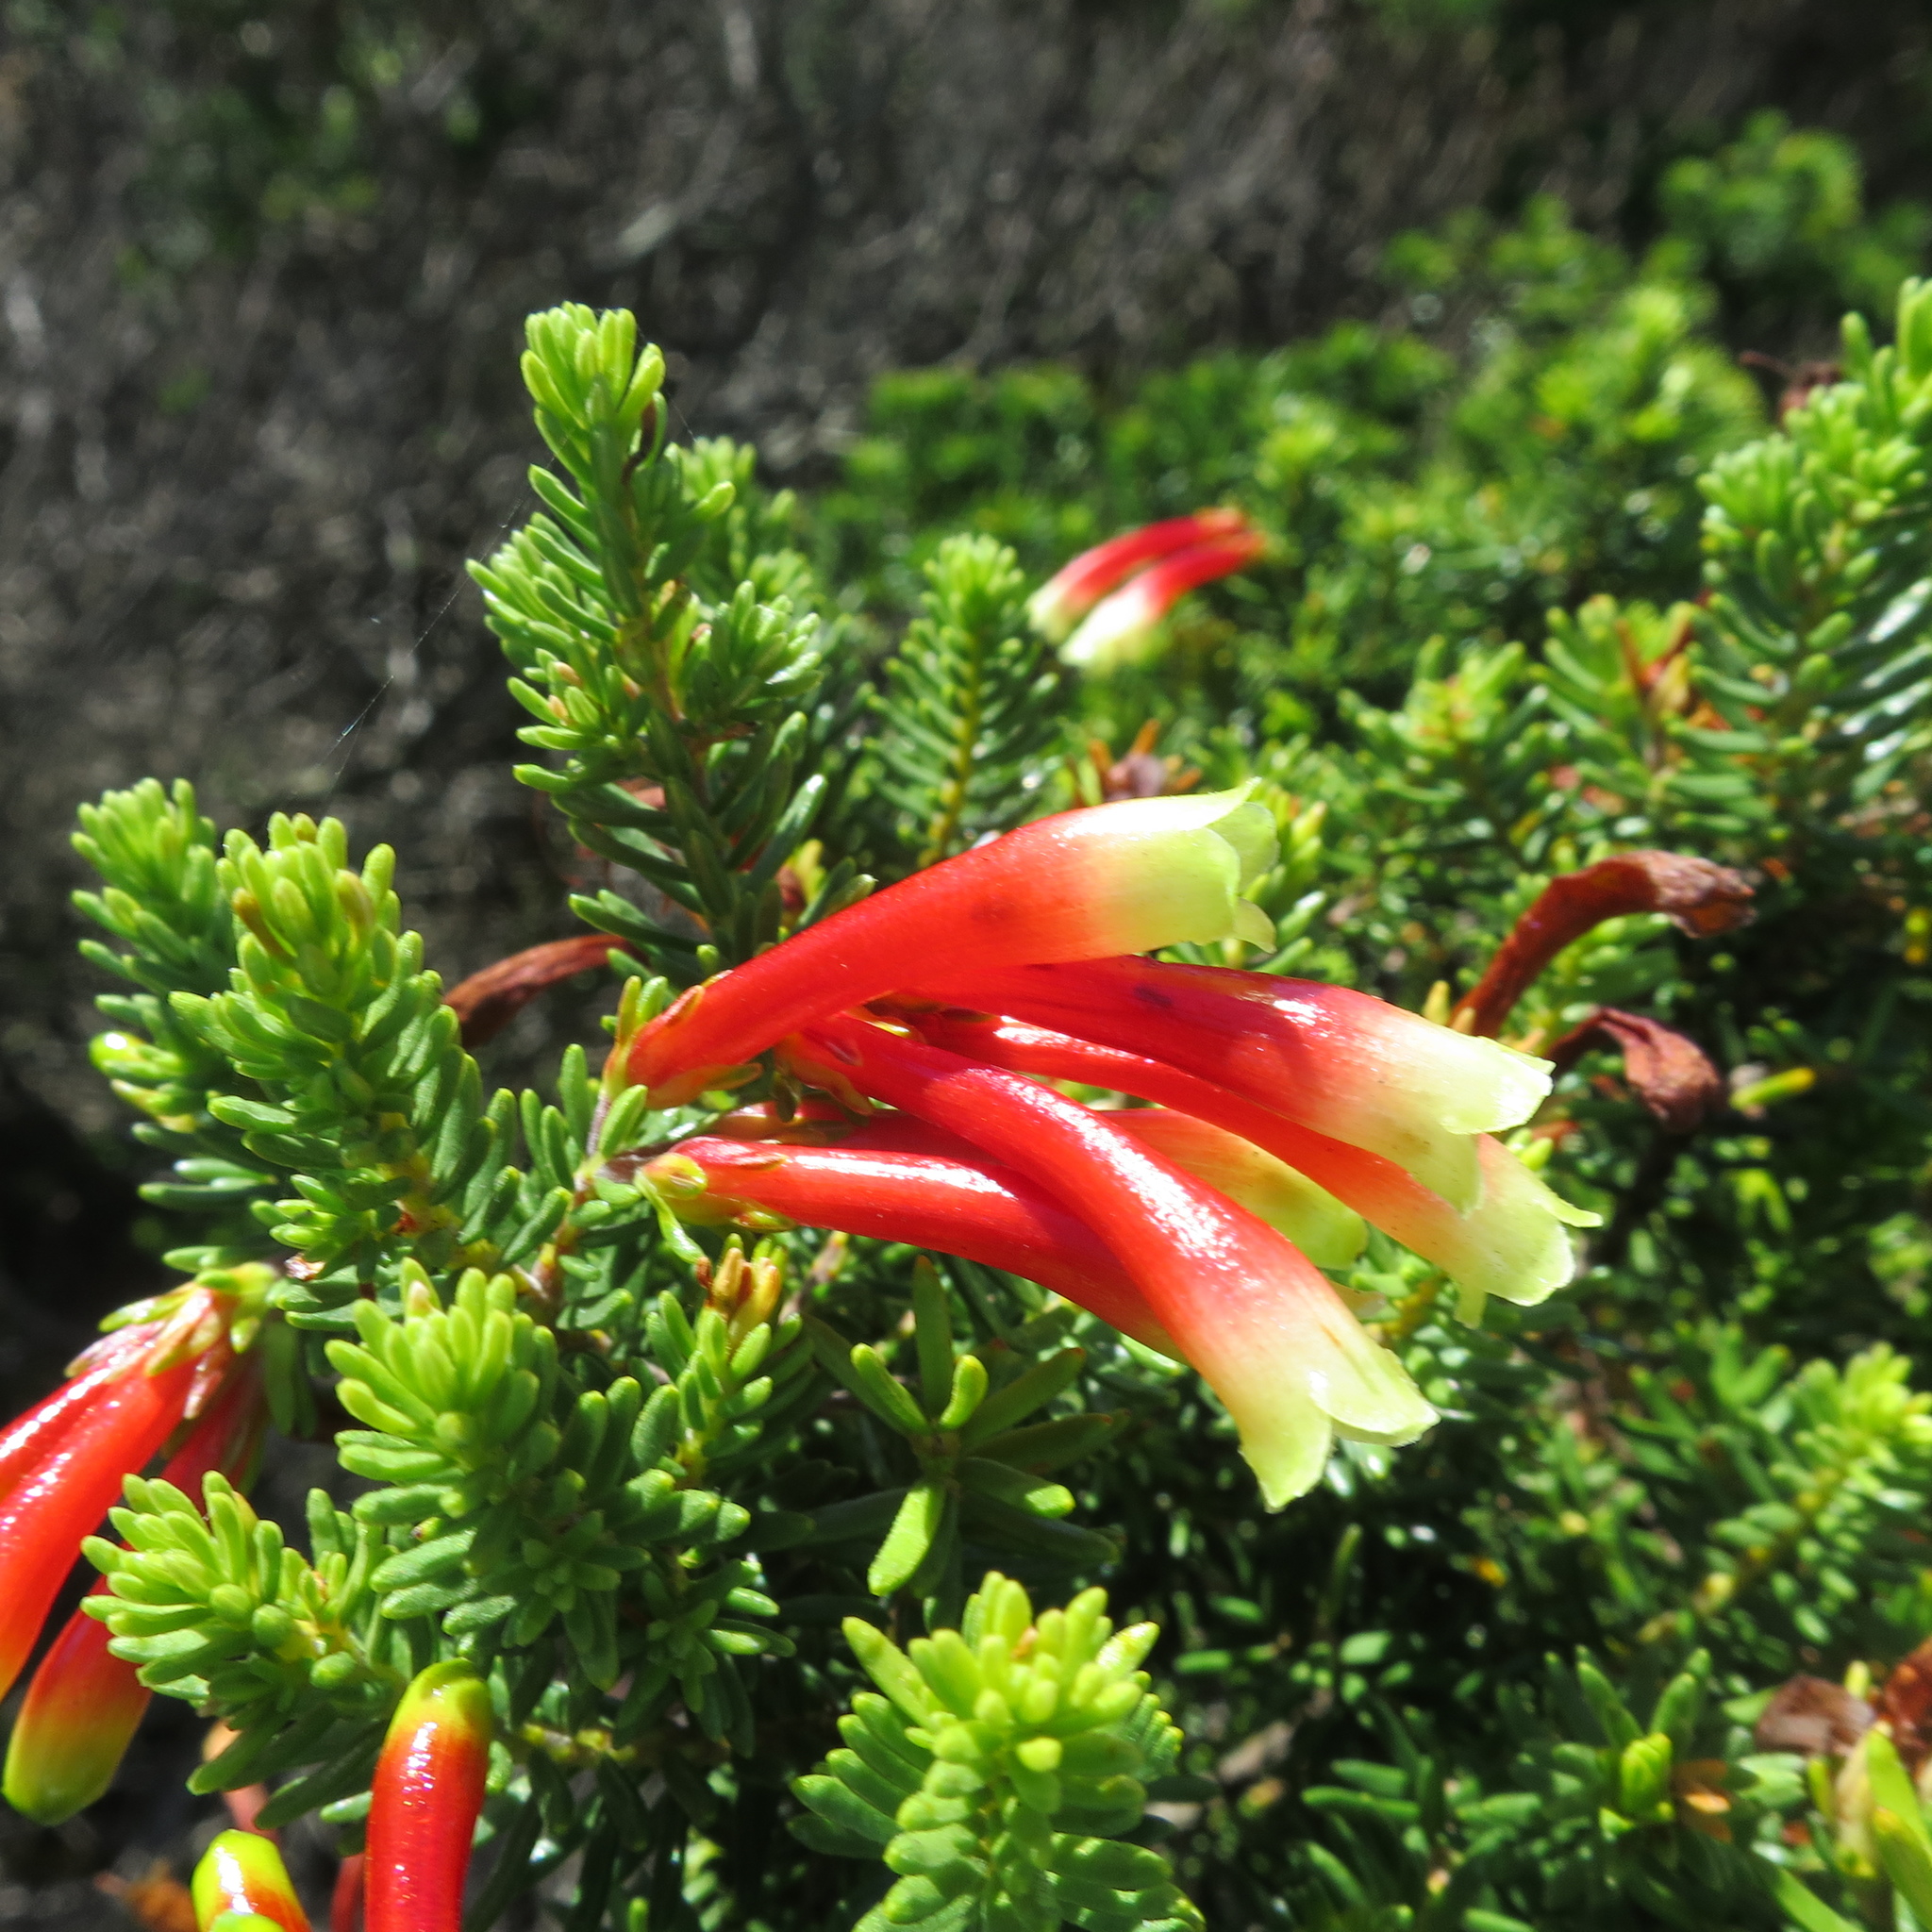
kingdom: Plantae
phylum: Tracheophyta
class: Magnoliopsida
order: Ericales
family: Ericaceae
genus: Erica
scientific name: Erica discolor
